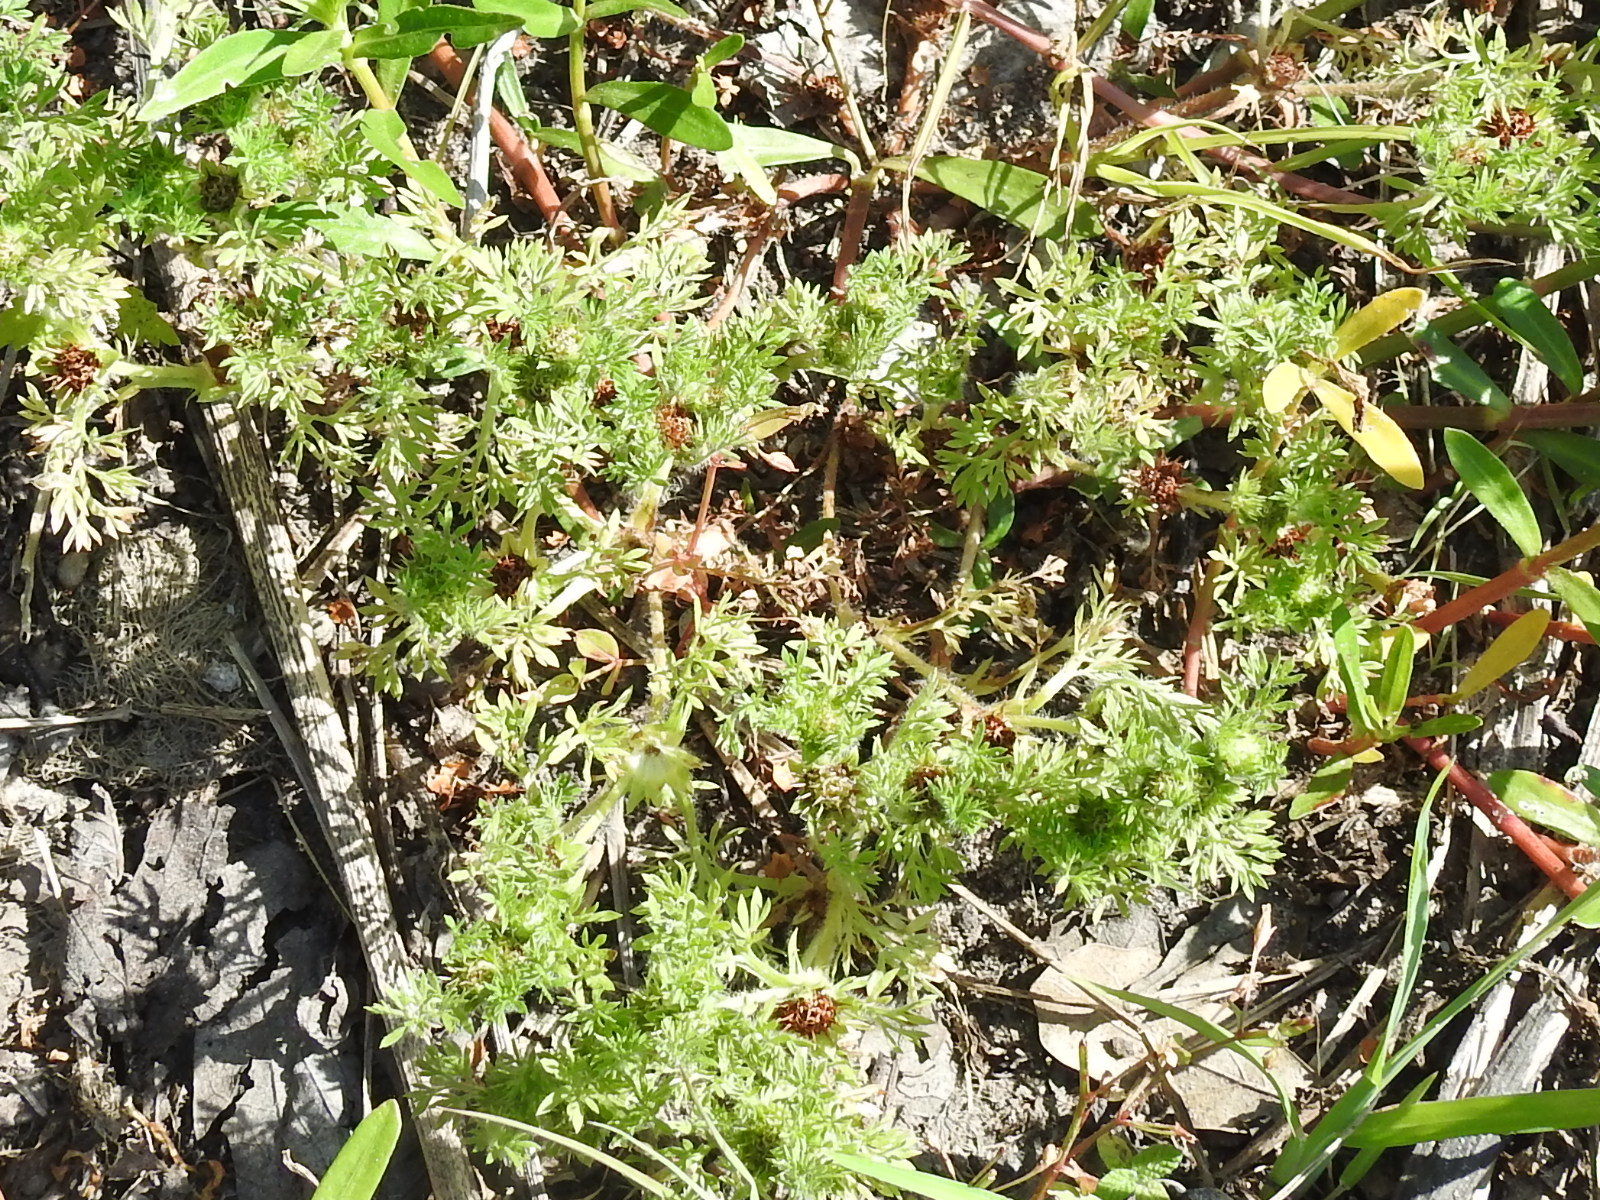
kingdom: Plantae
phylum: Tracheophyta
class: Magnoliopsida
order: Asterales
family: Asteraceae
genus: Soliva
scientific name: Soliva sessilis
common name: Field burrweed
